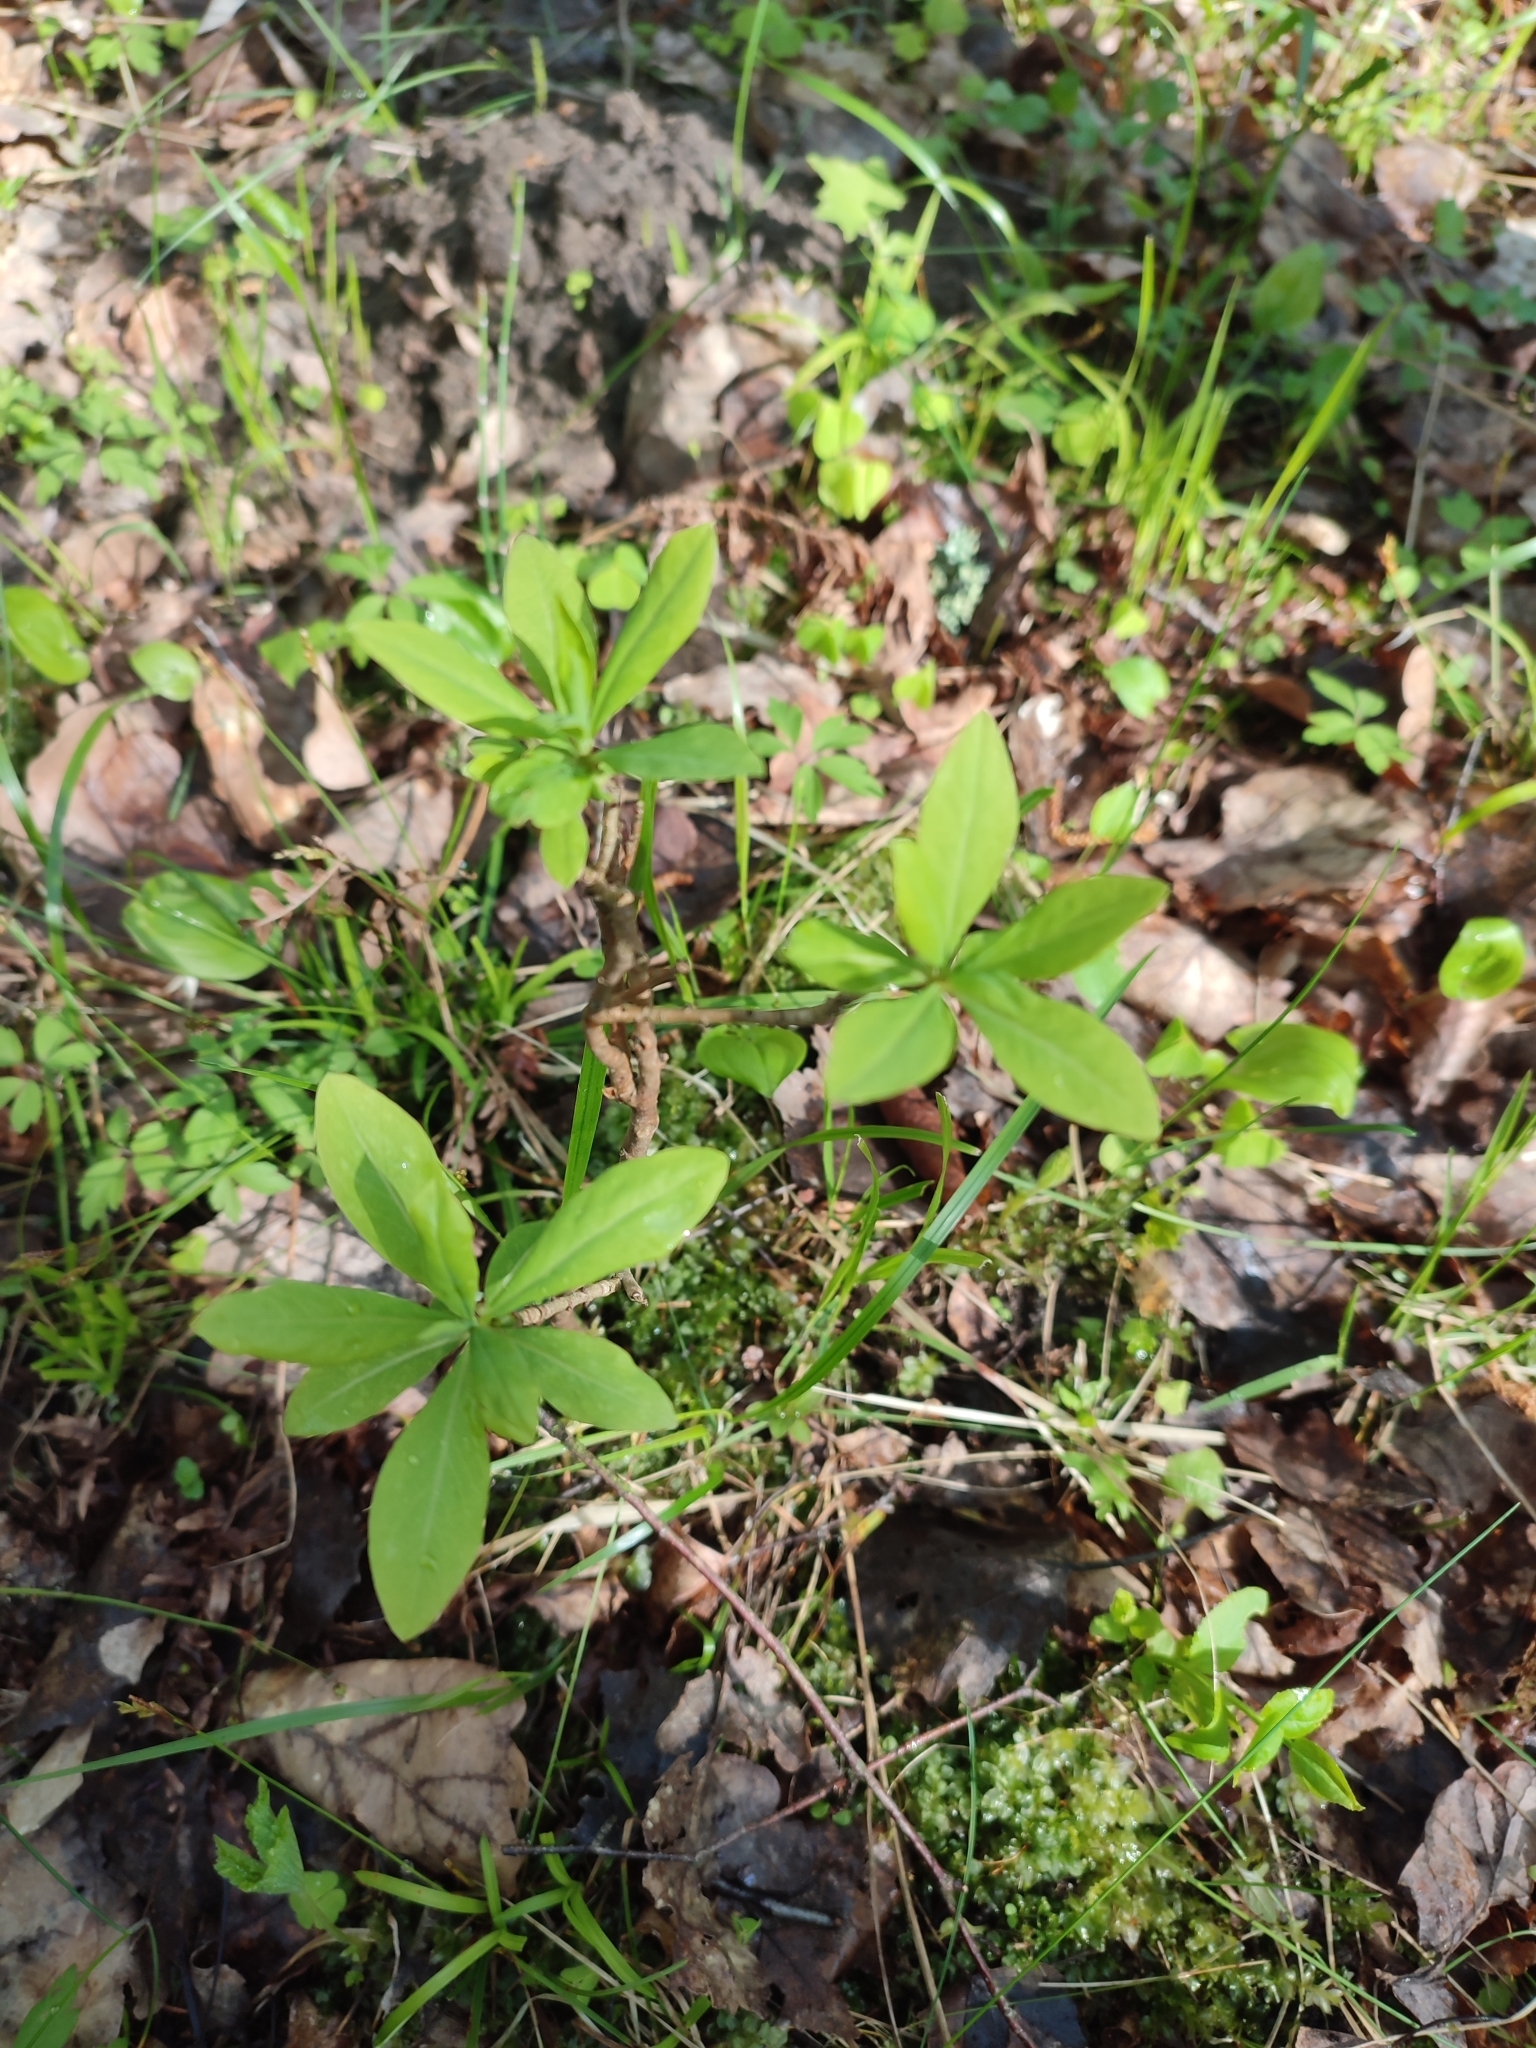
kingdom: Plantae
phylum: Tracheophyta
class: Magnoliopsida
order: Malvales
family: Thymelaeaceae
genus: Daphne
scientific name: Daphne mezereum
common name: Mezereon
